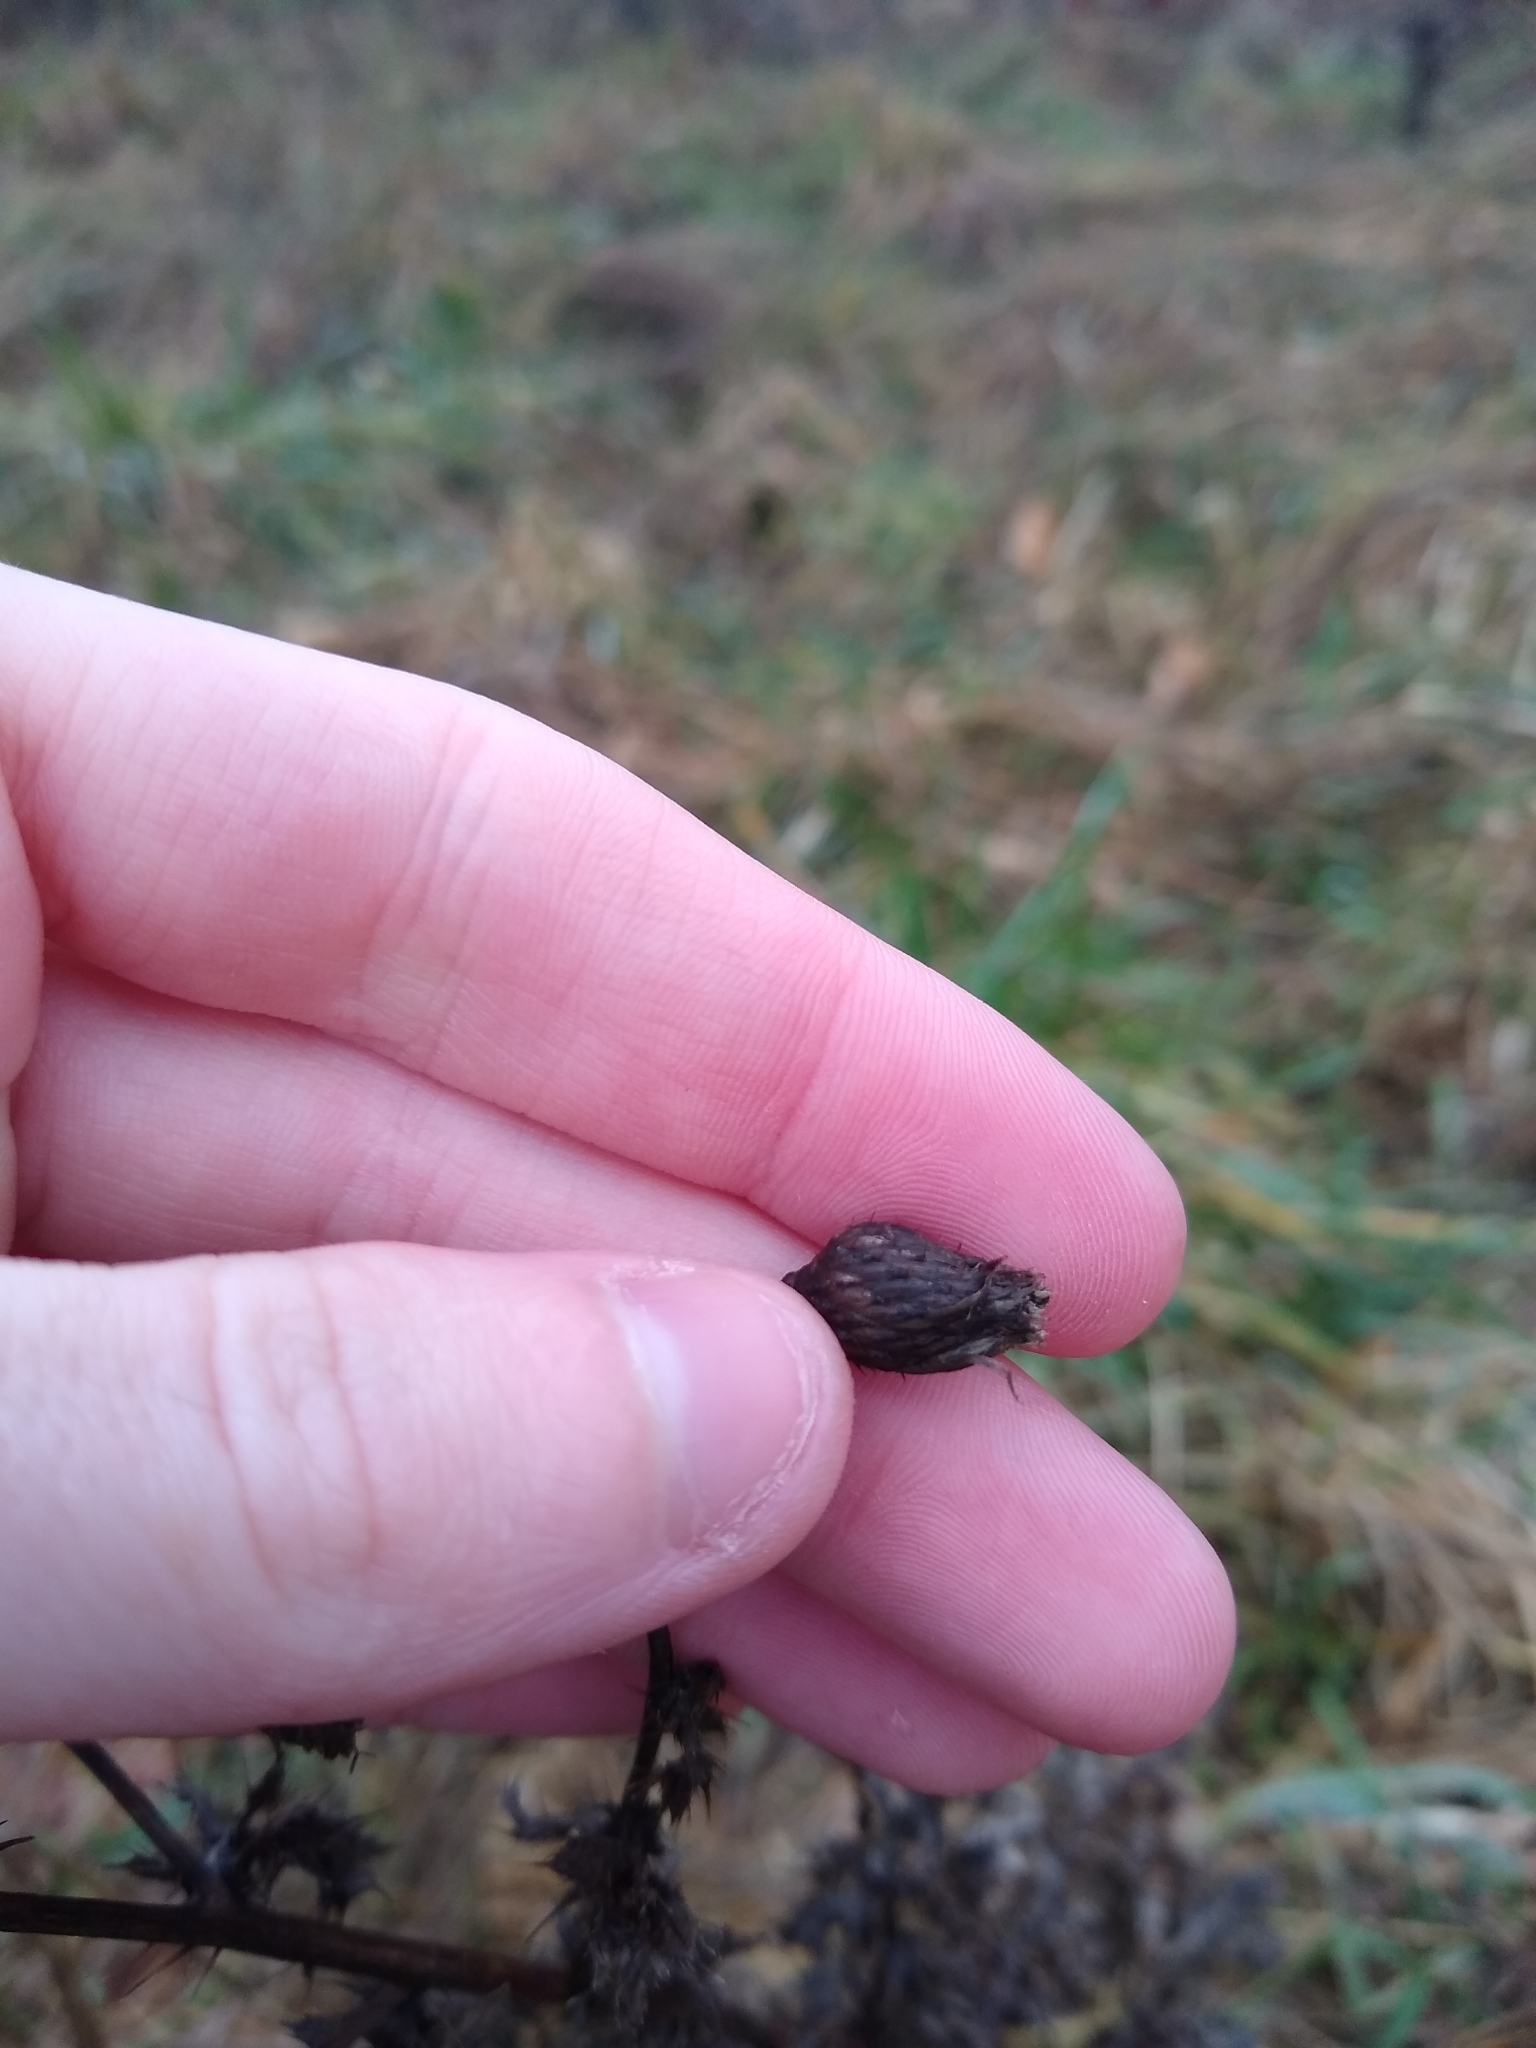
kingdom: Plantae
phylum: Tracheophyta
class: Magnoliopsida
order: Asterales
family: Asteraceae
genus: Cirsium
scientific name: Cirsium arvense
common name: Creeping thistle
